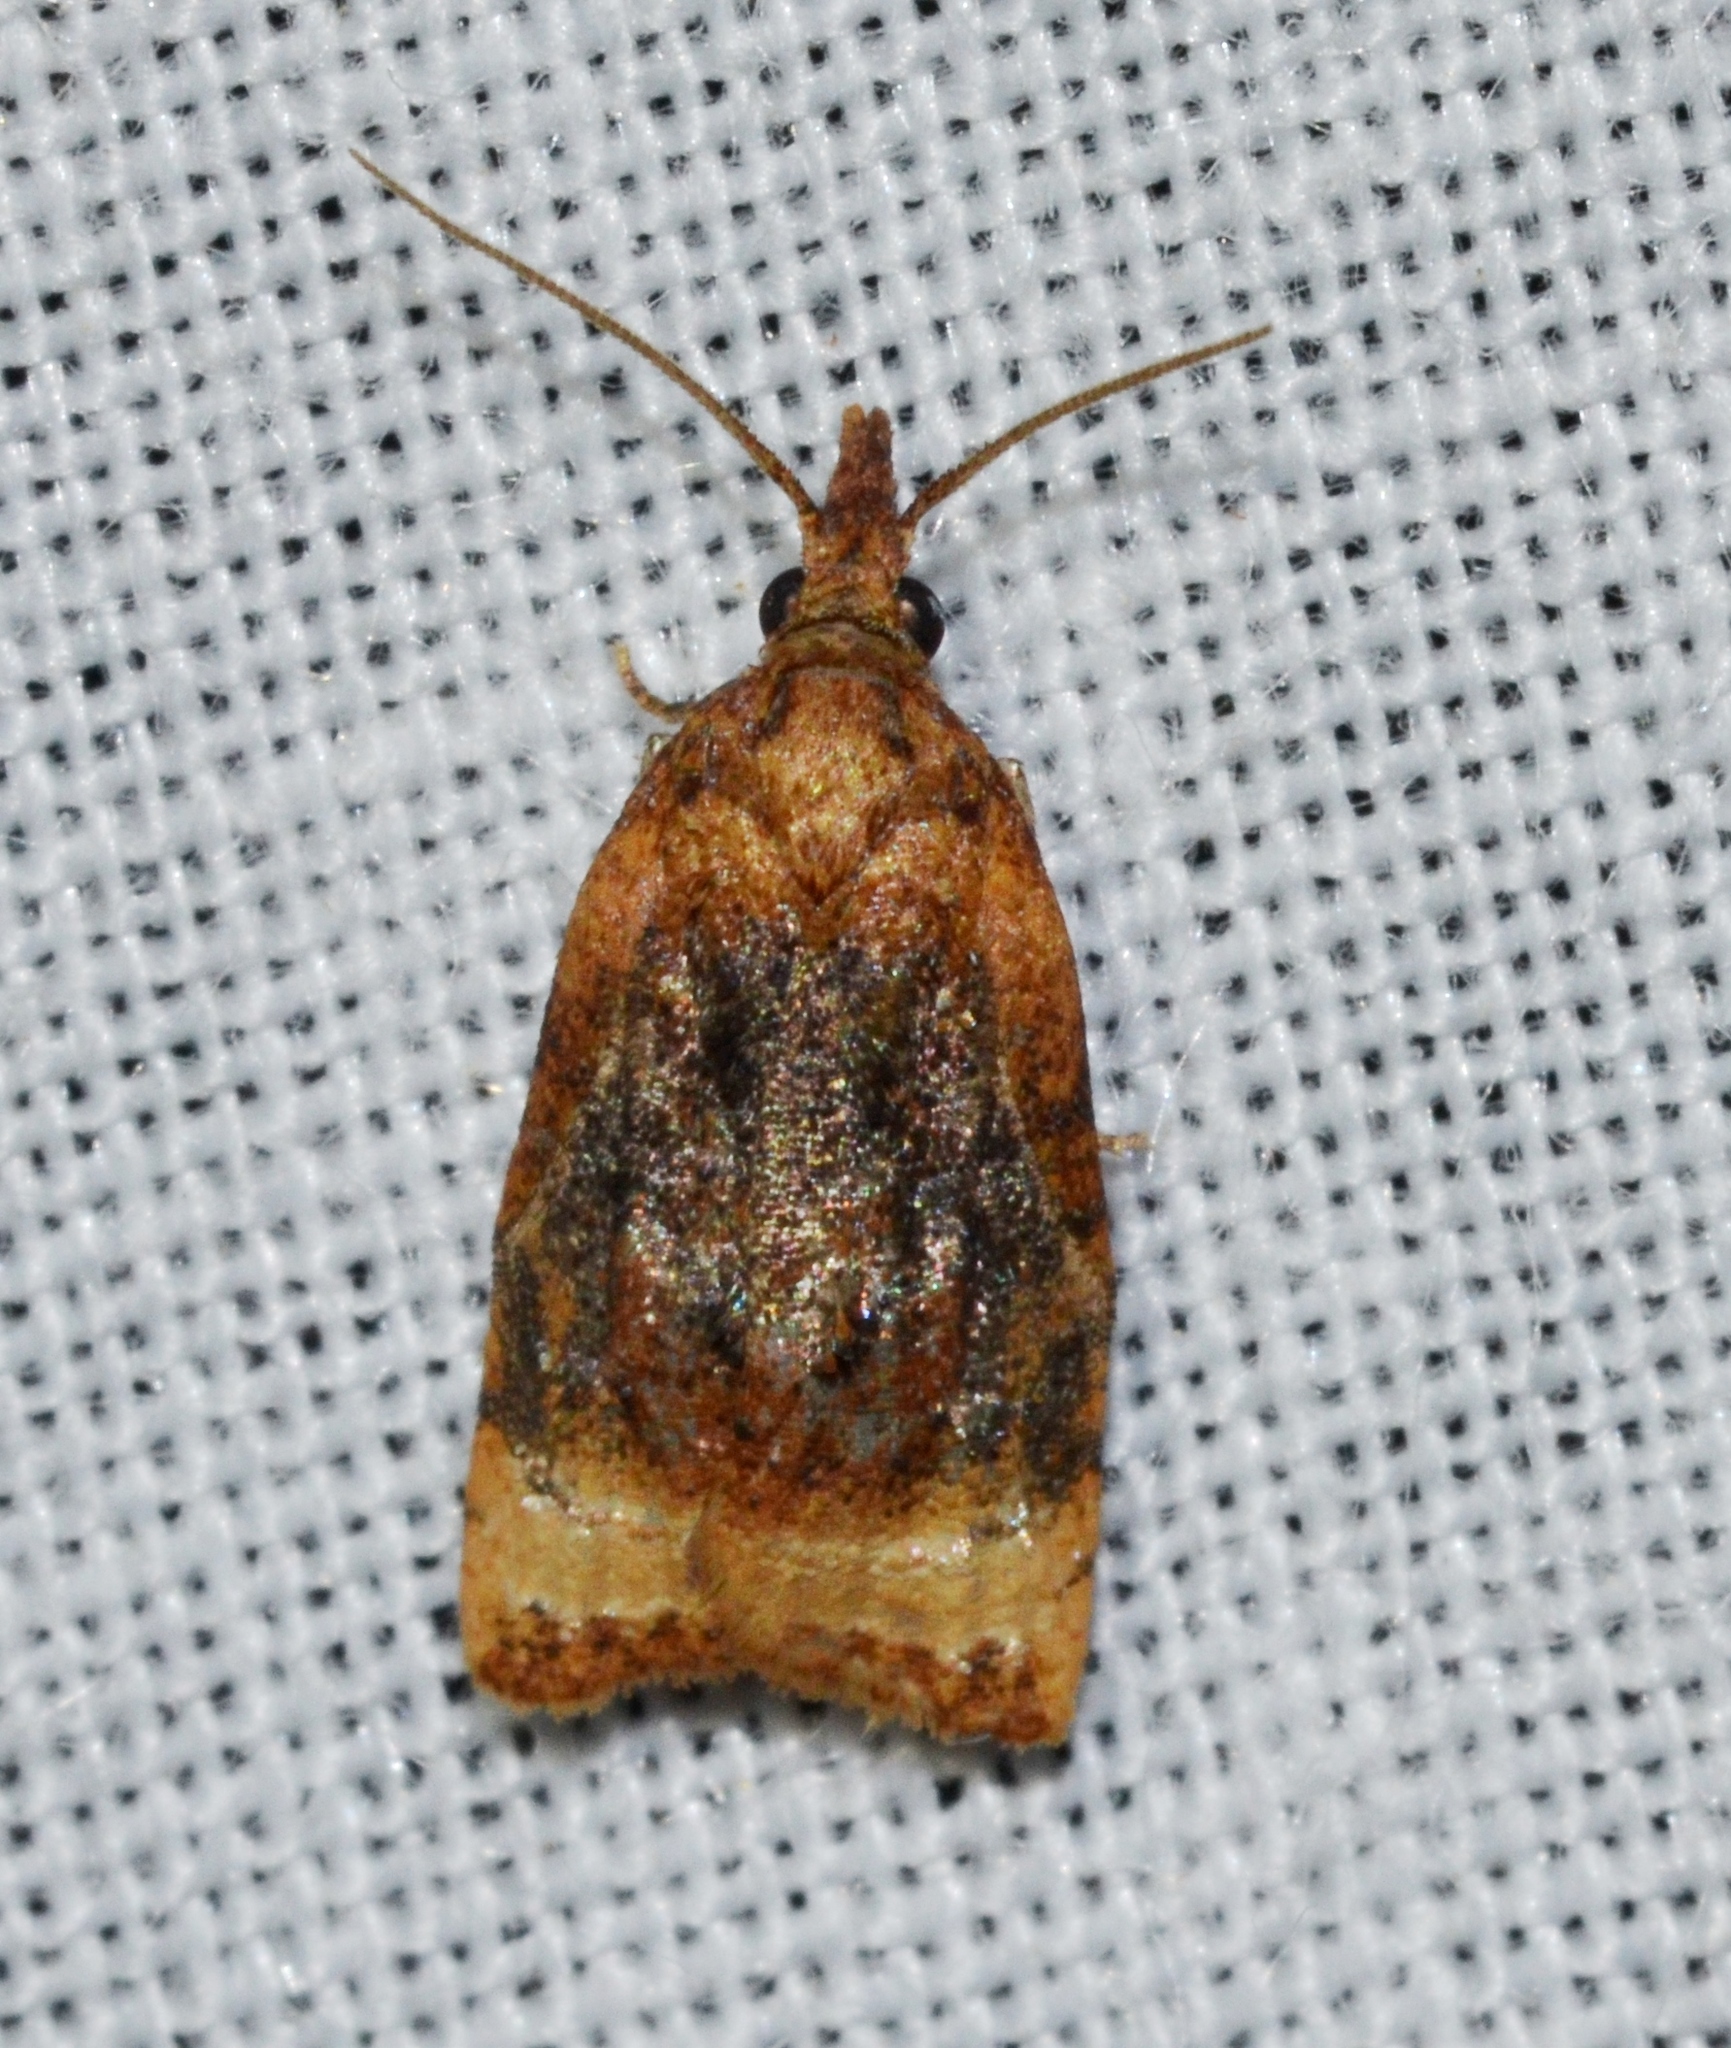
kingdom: Animalia
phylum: Arthropoda
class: Insecta
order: Lepidoptera
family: Tortricidae
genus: Platynota
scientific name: Platynota flavedana
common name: Black-shaded platynota moth
